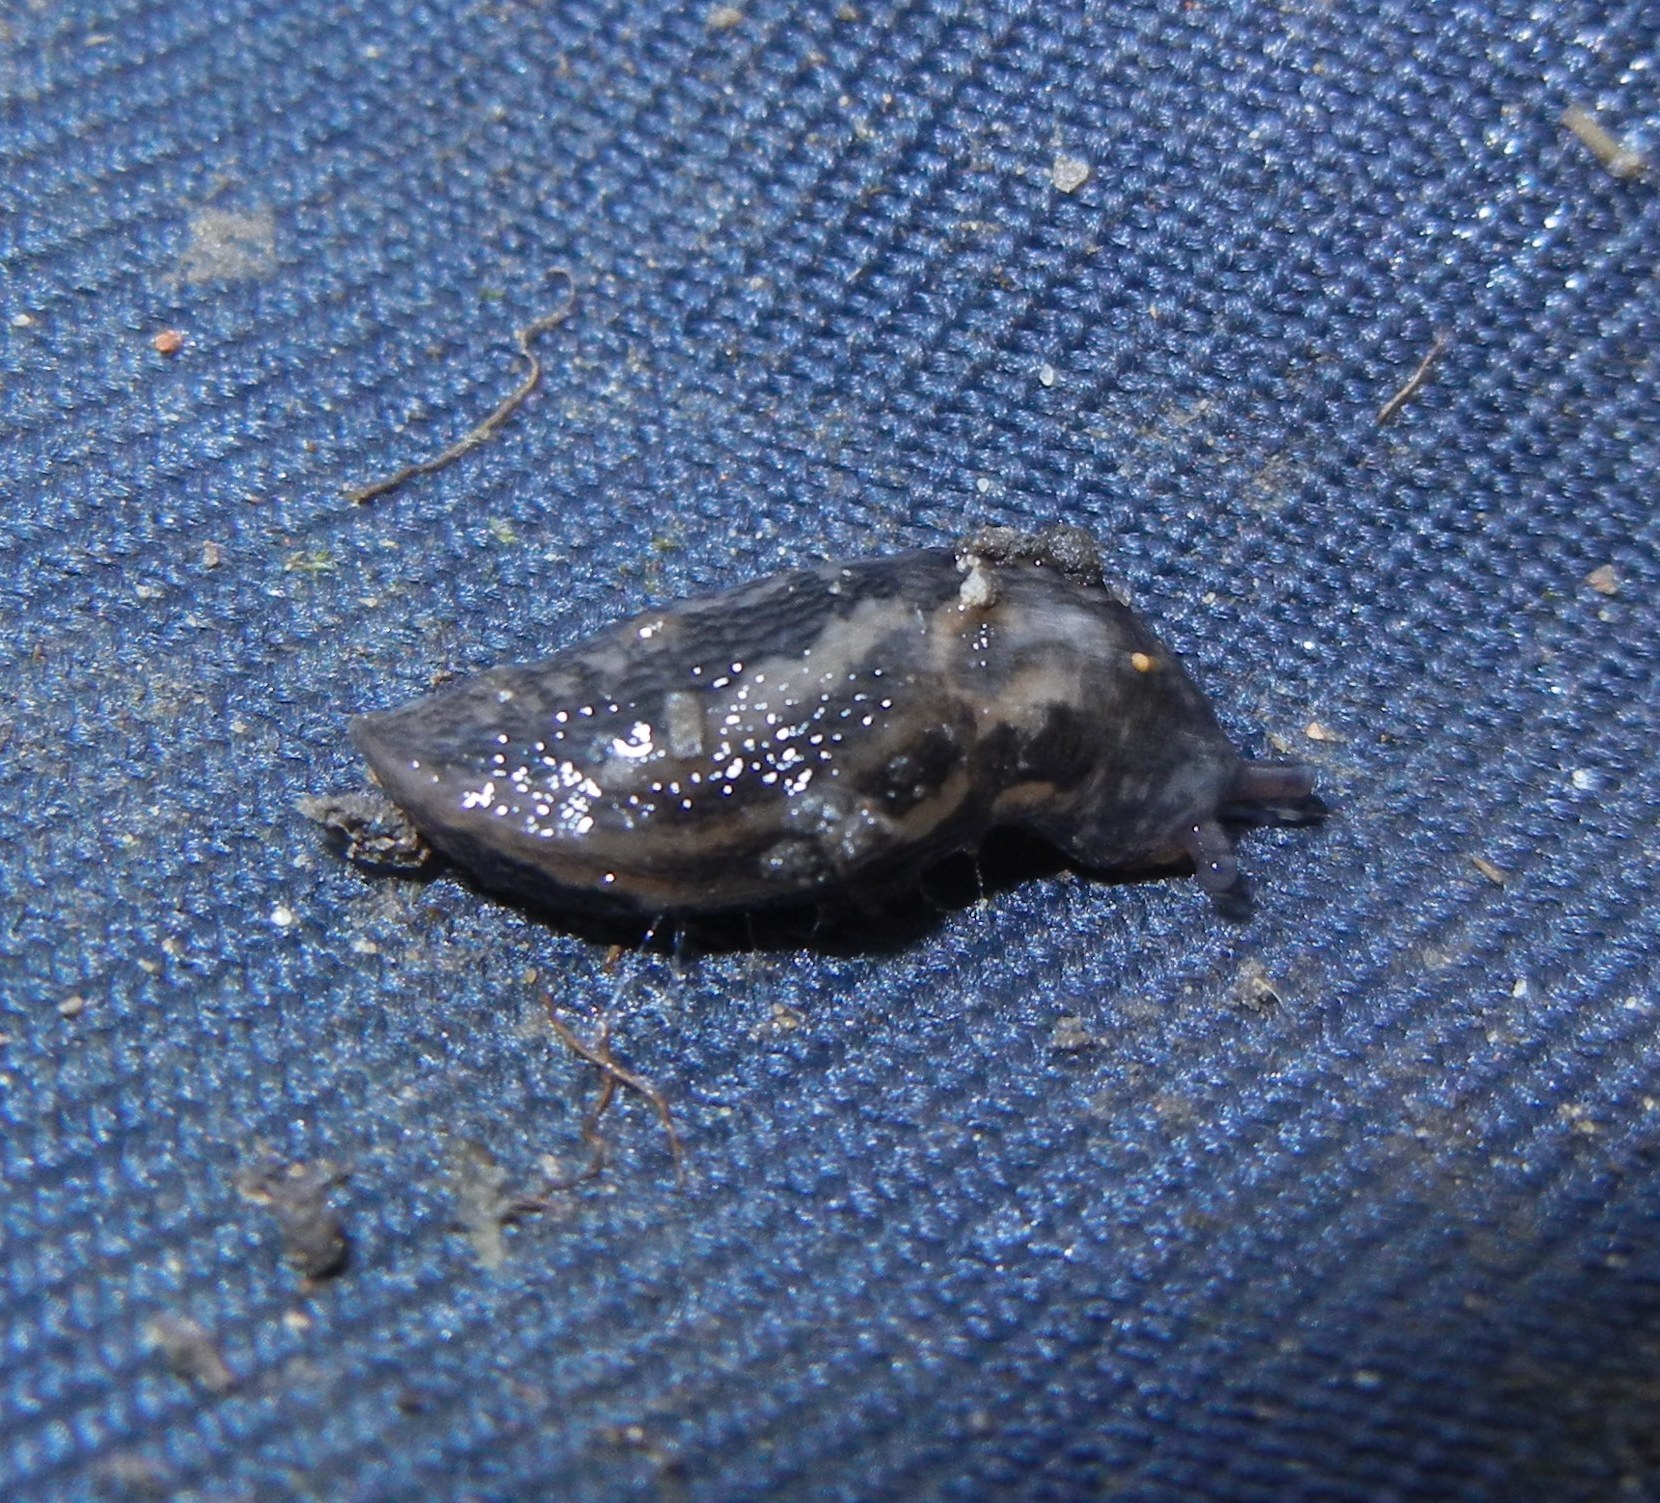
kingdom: Animalia
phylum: Mollusca
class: Gastropoda
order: Stylommatophora
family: Limacidae
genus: Limax
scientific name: Limax maximus
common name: Great grey slug
